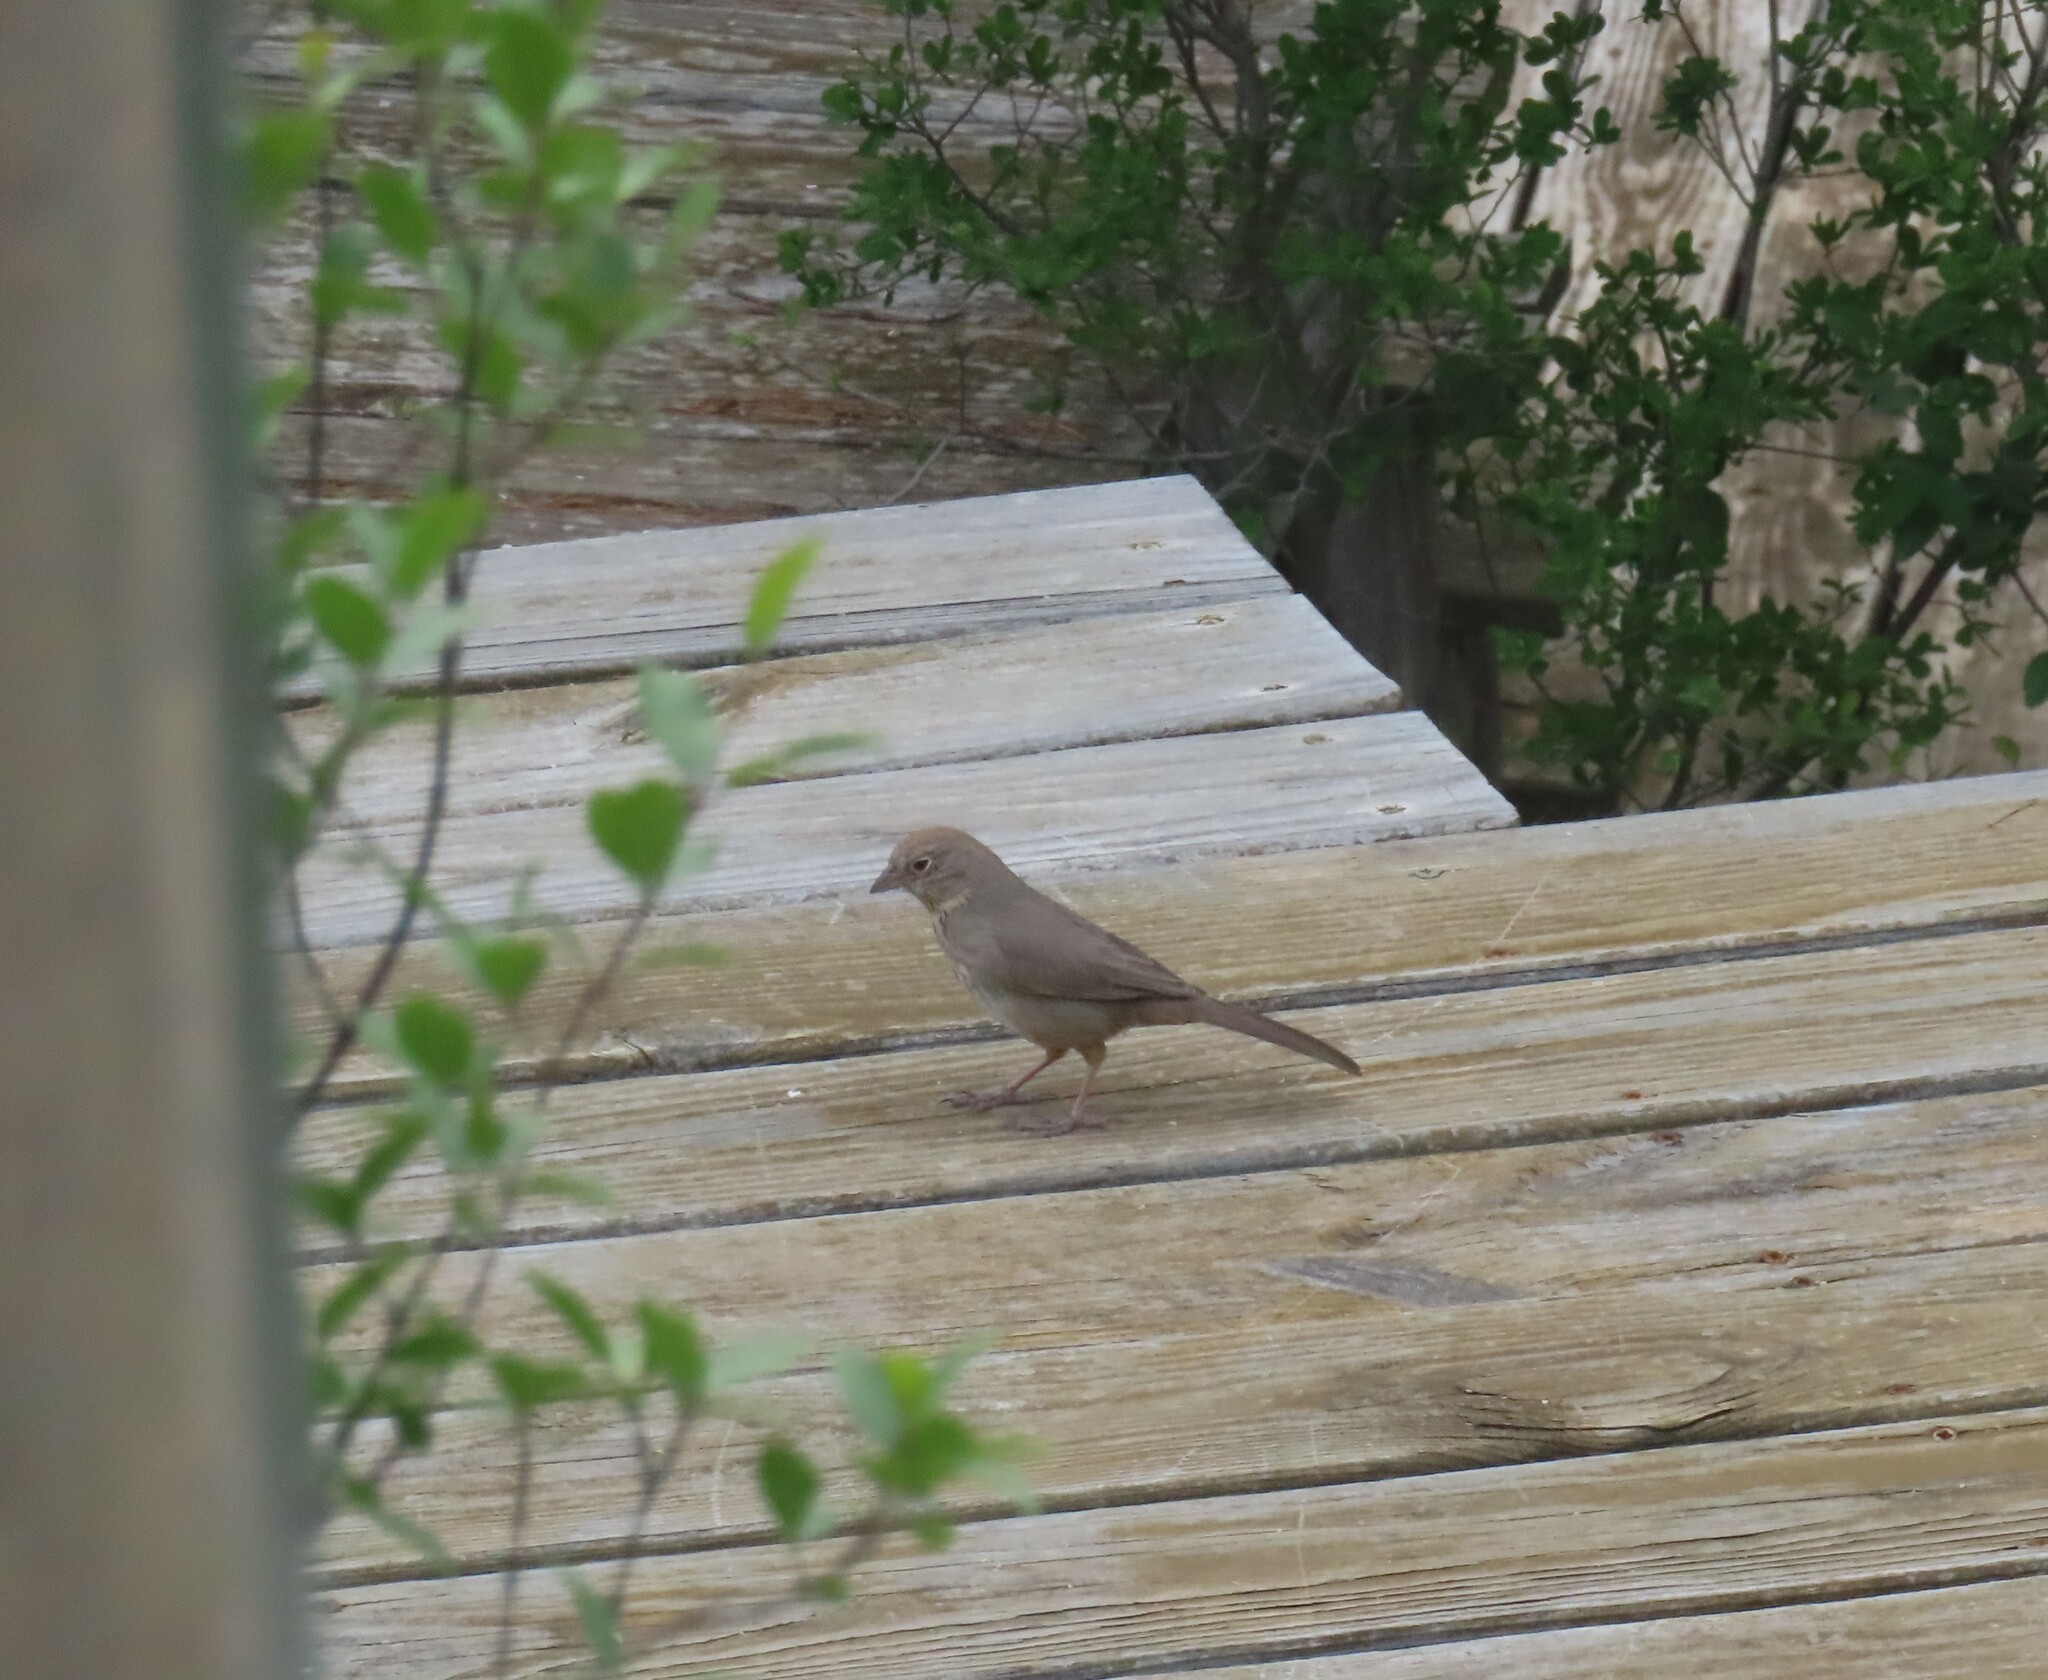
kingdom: Animalia
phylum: Chordata
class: Aves
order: Passeriformes
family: Passerellidae
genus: Melozone
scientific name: Melozone fusca
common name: Canyon towhee
